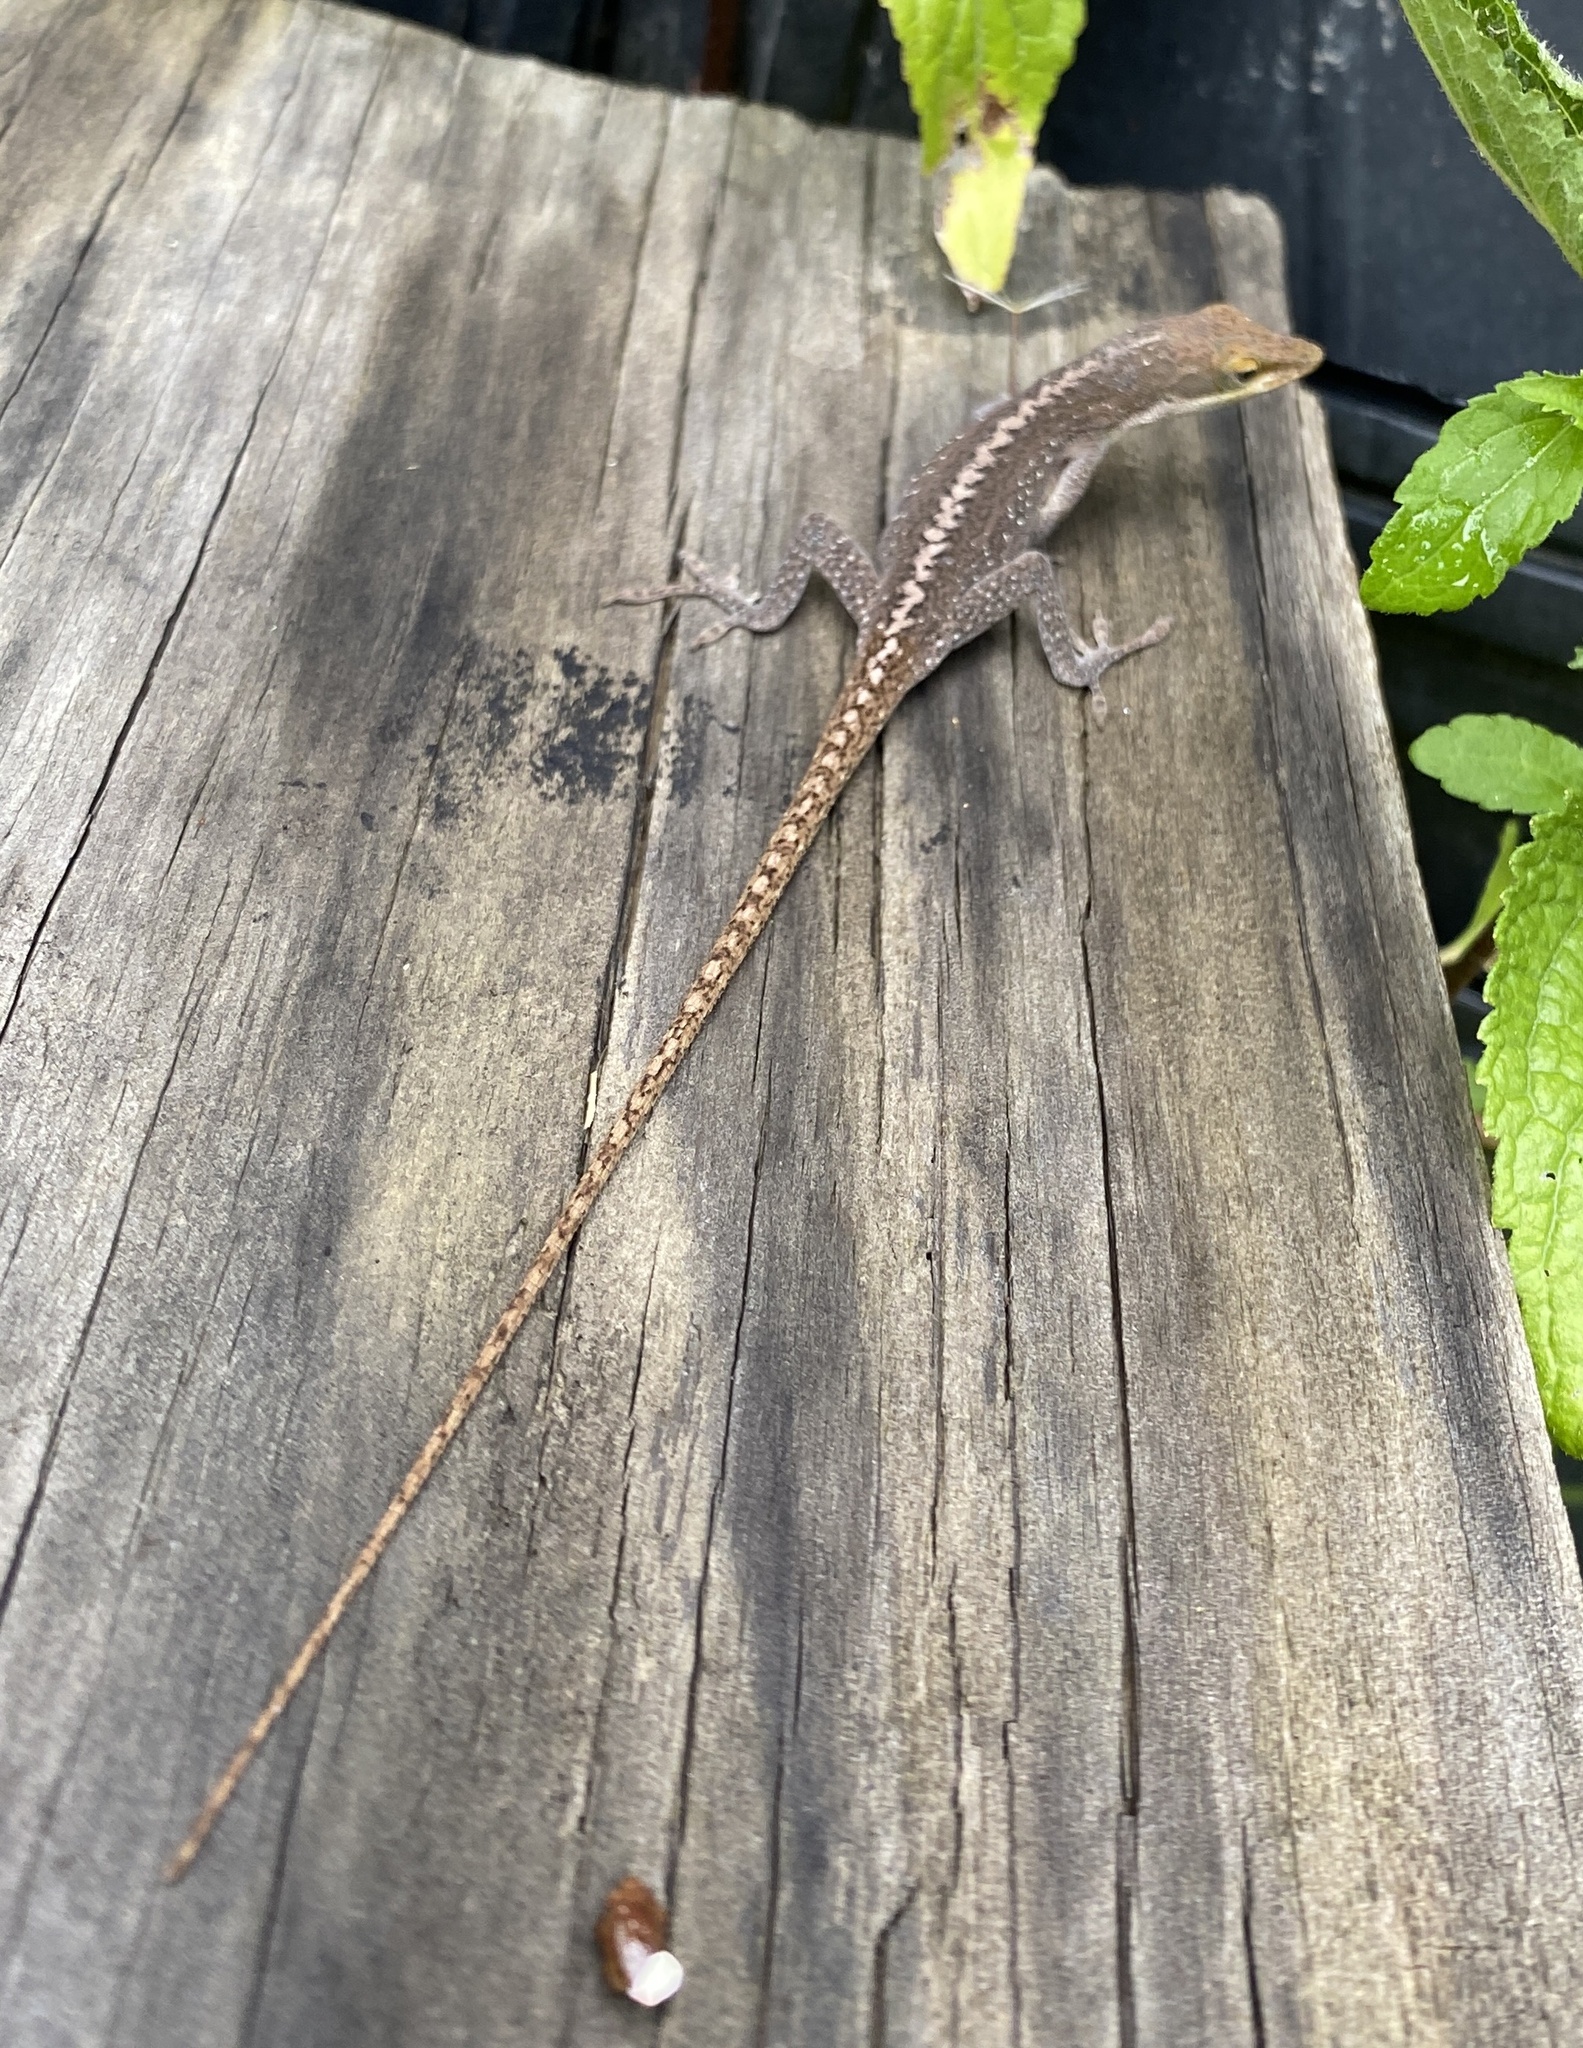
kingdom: Animalia
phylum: Chordata
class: Squamata
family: Dactyloidae
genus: Anolis
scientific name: Anolis carolinensis
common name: Green anole
